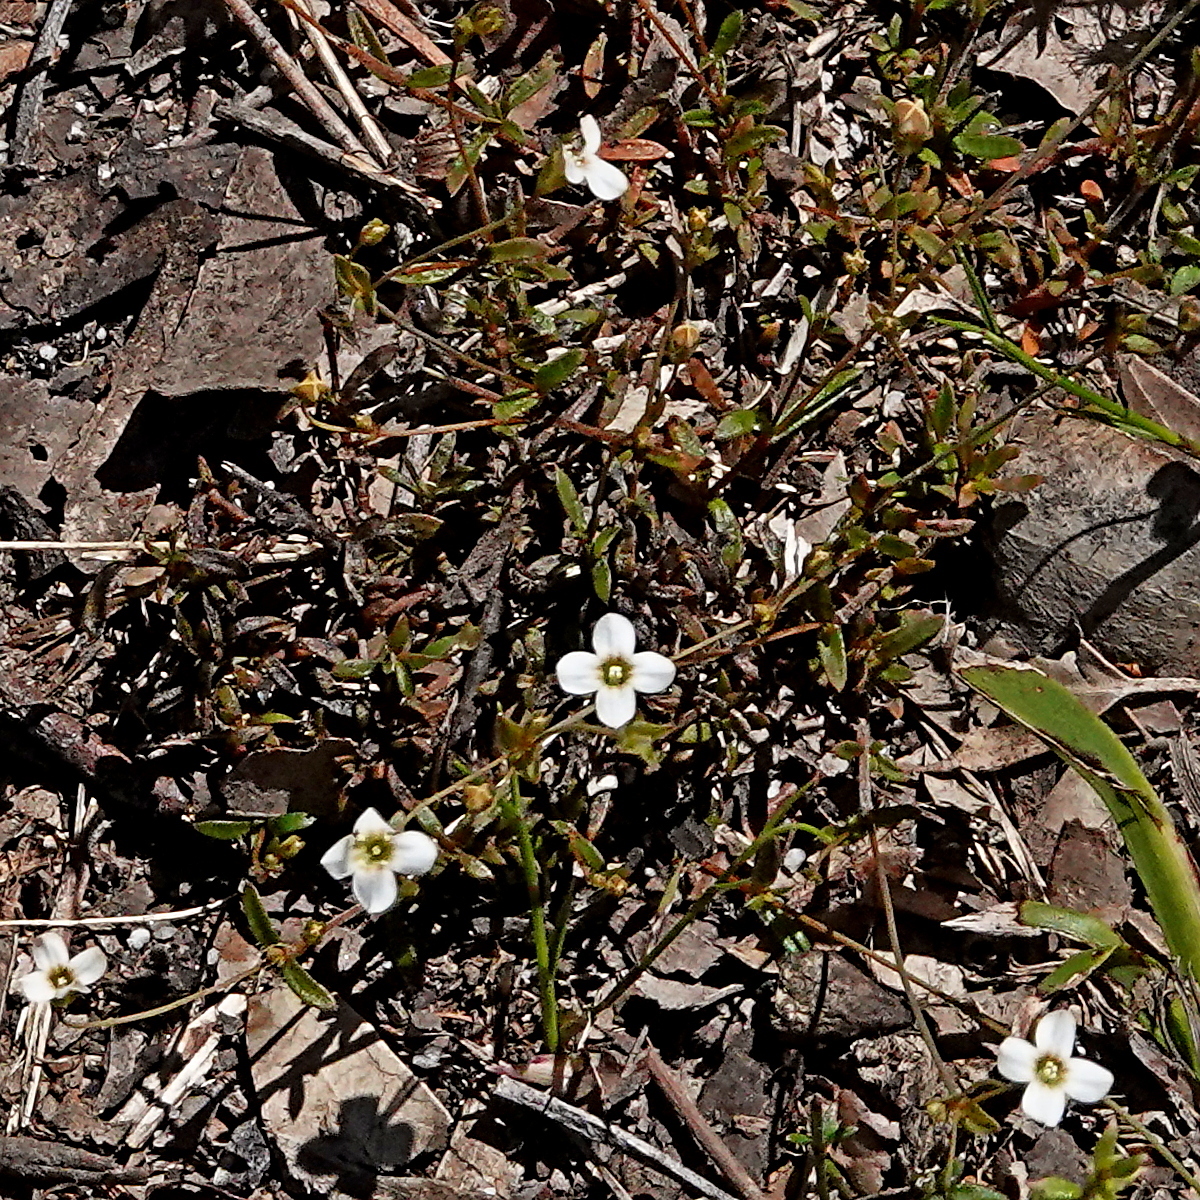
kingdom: Plantae
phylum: Tracheophyta
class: Magnoliopsida
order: Gentianales
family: Loganiaceae
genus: Mitrasacme
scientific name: Mitrasacme polymorpha
